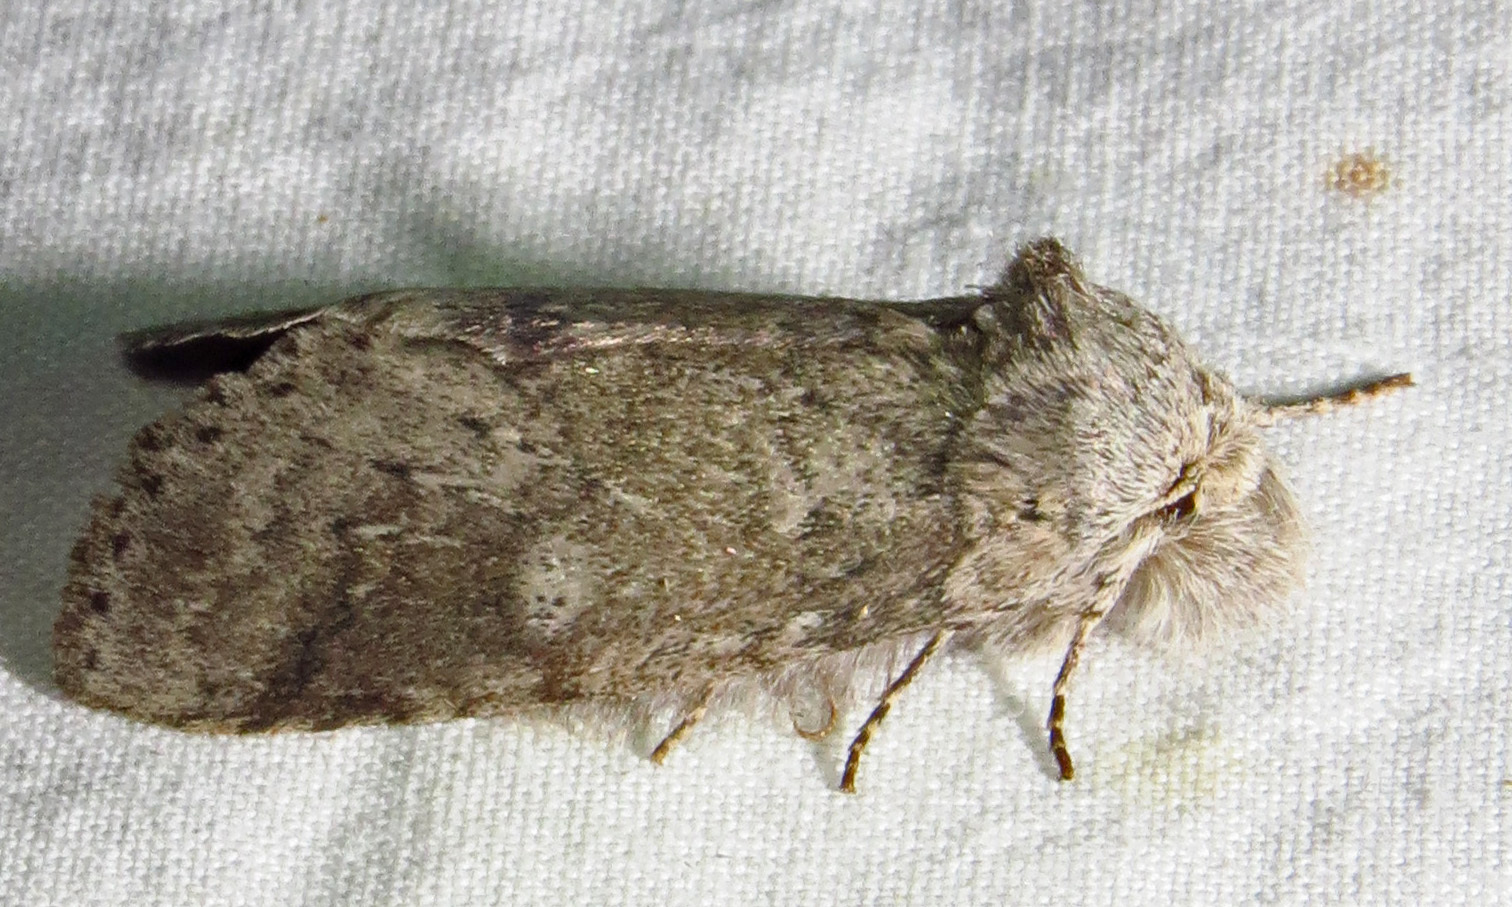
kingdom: Animalia
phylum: Arthropoda
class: Insecta
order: Lepidoptera
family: Notodontidae
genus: Lochmaeus
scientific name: Lochmaeus manteo
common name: Variable oakleaf caterpillar moth
